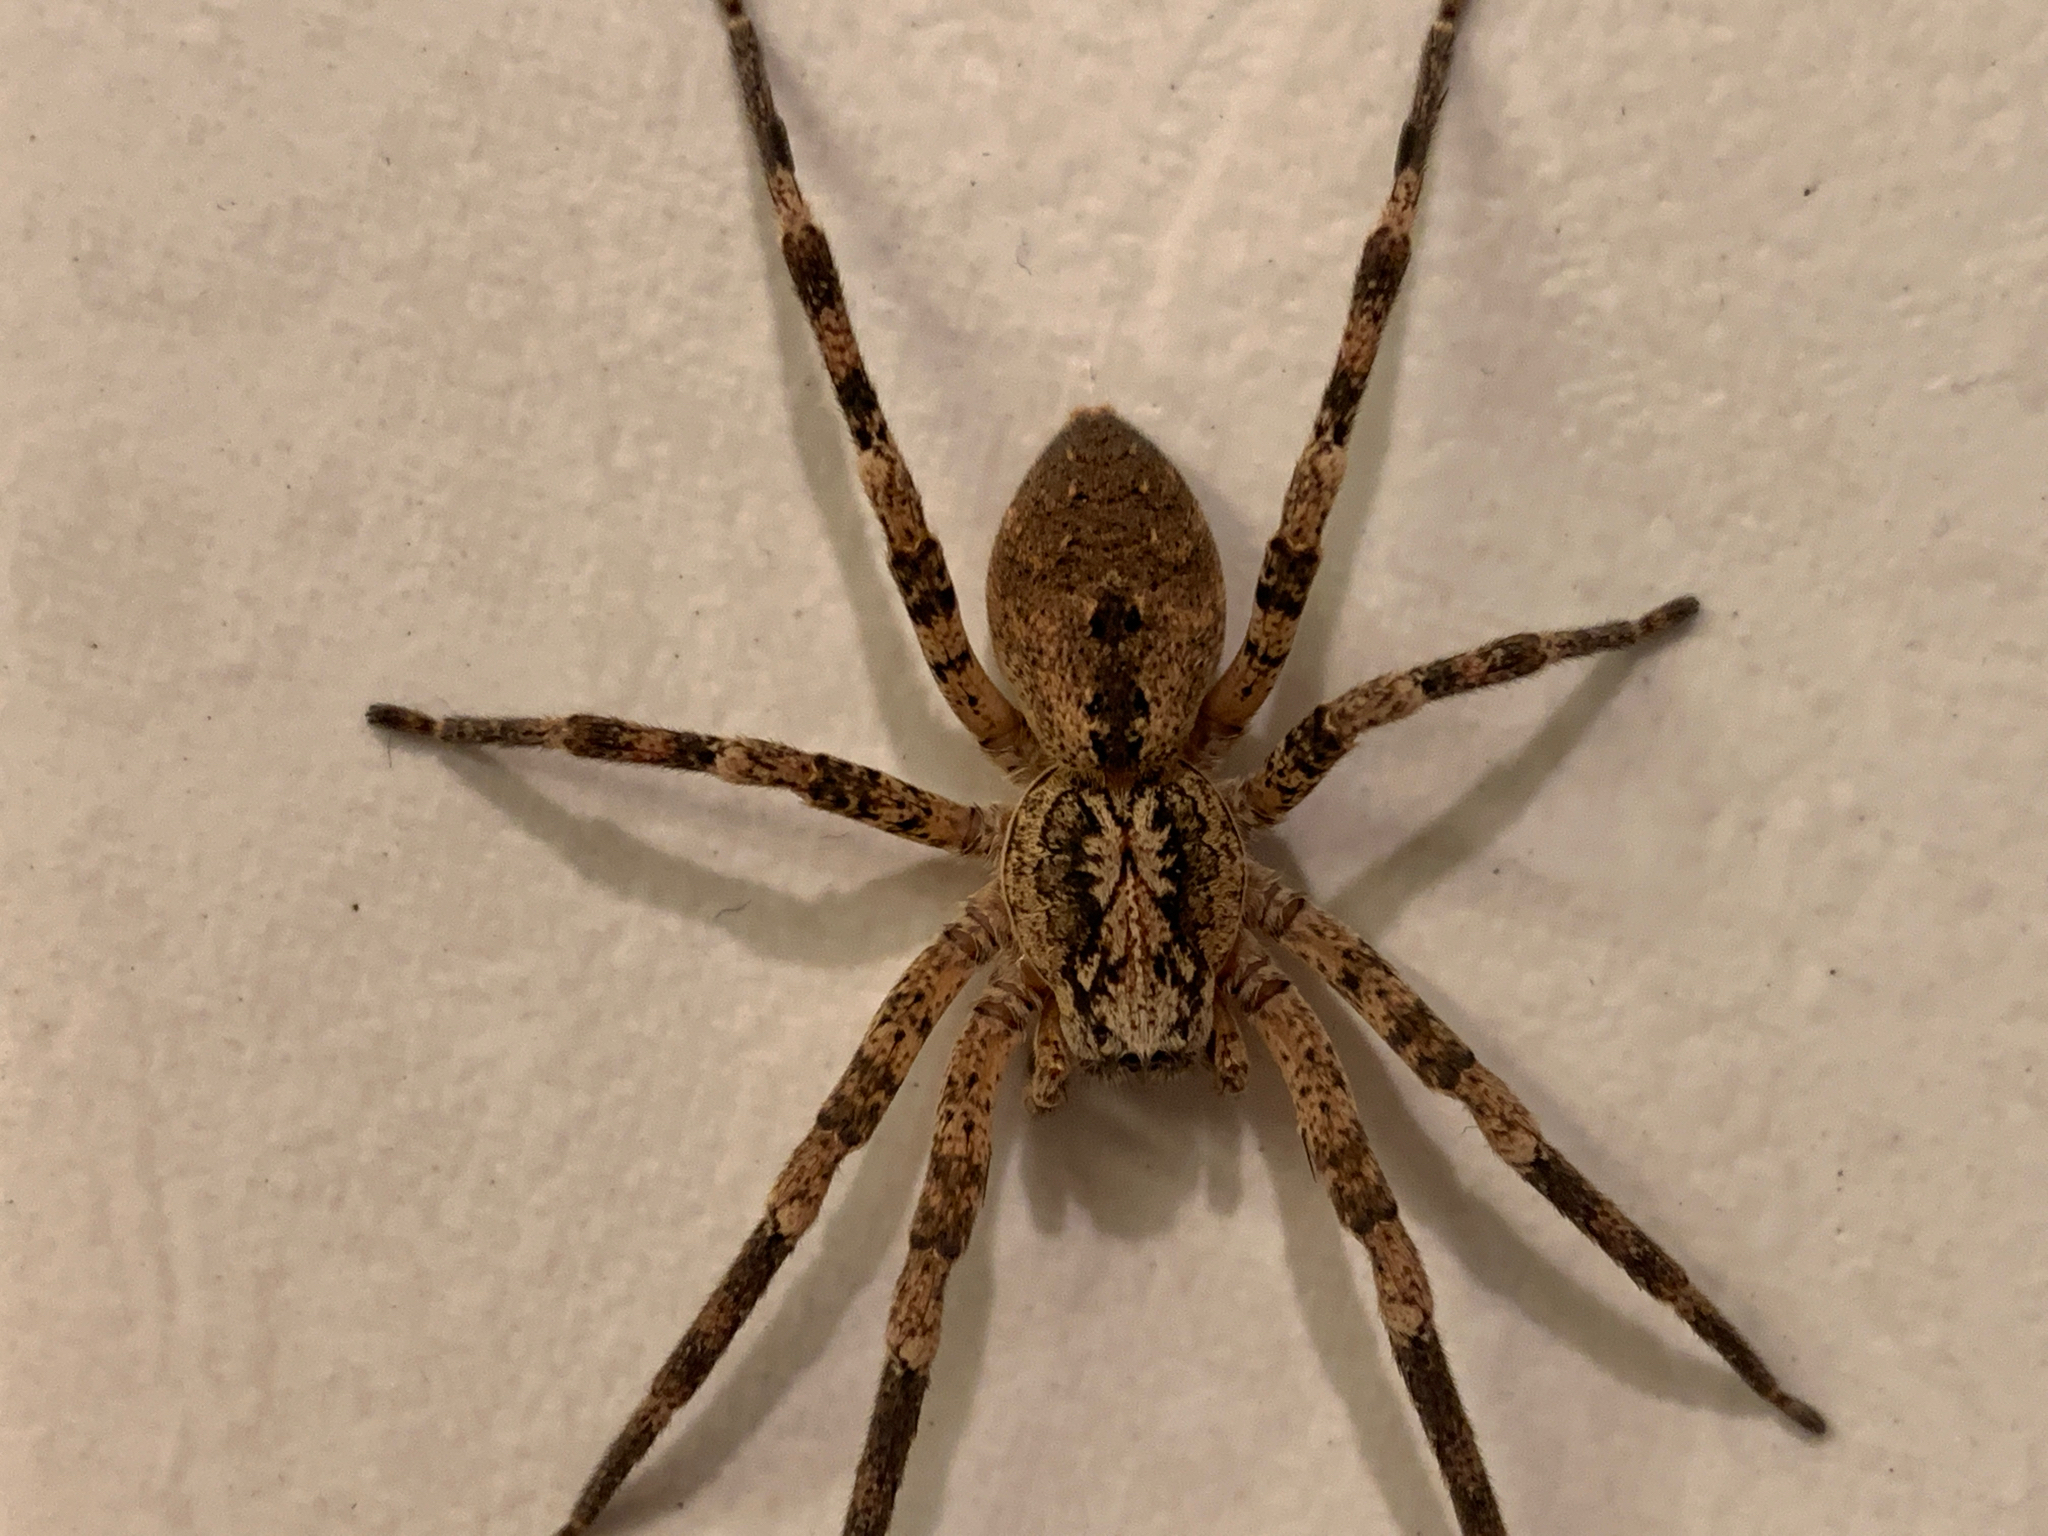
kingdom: Animalia
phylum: Arthropoda
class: Arachnida
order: Araneae
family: Zoropsidae
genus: Zoropsis
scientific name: Zoropsis spinimana
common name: Zoropsid spider
